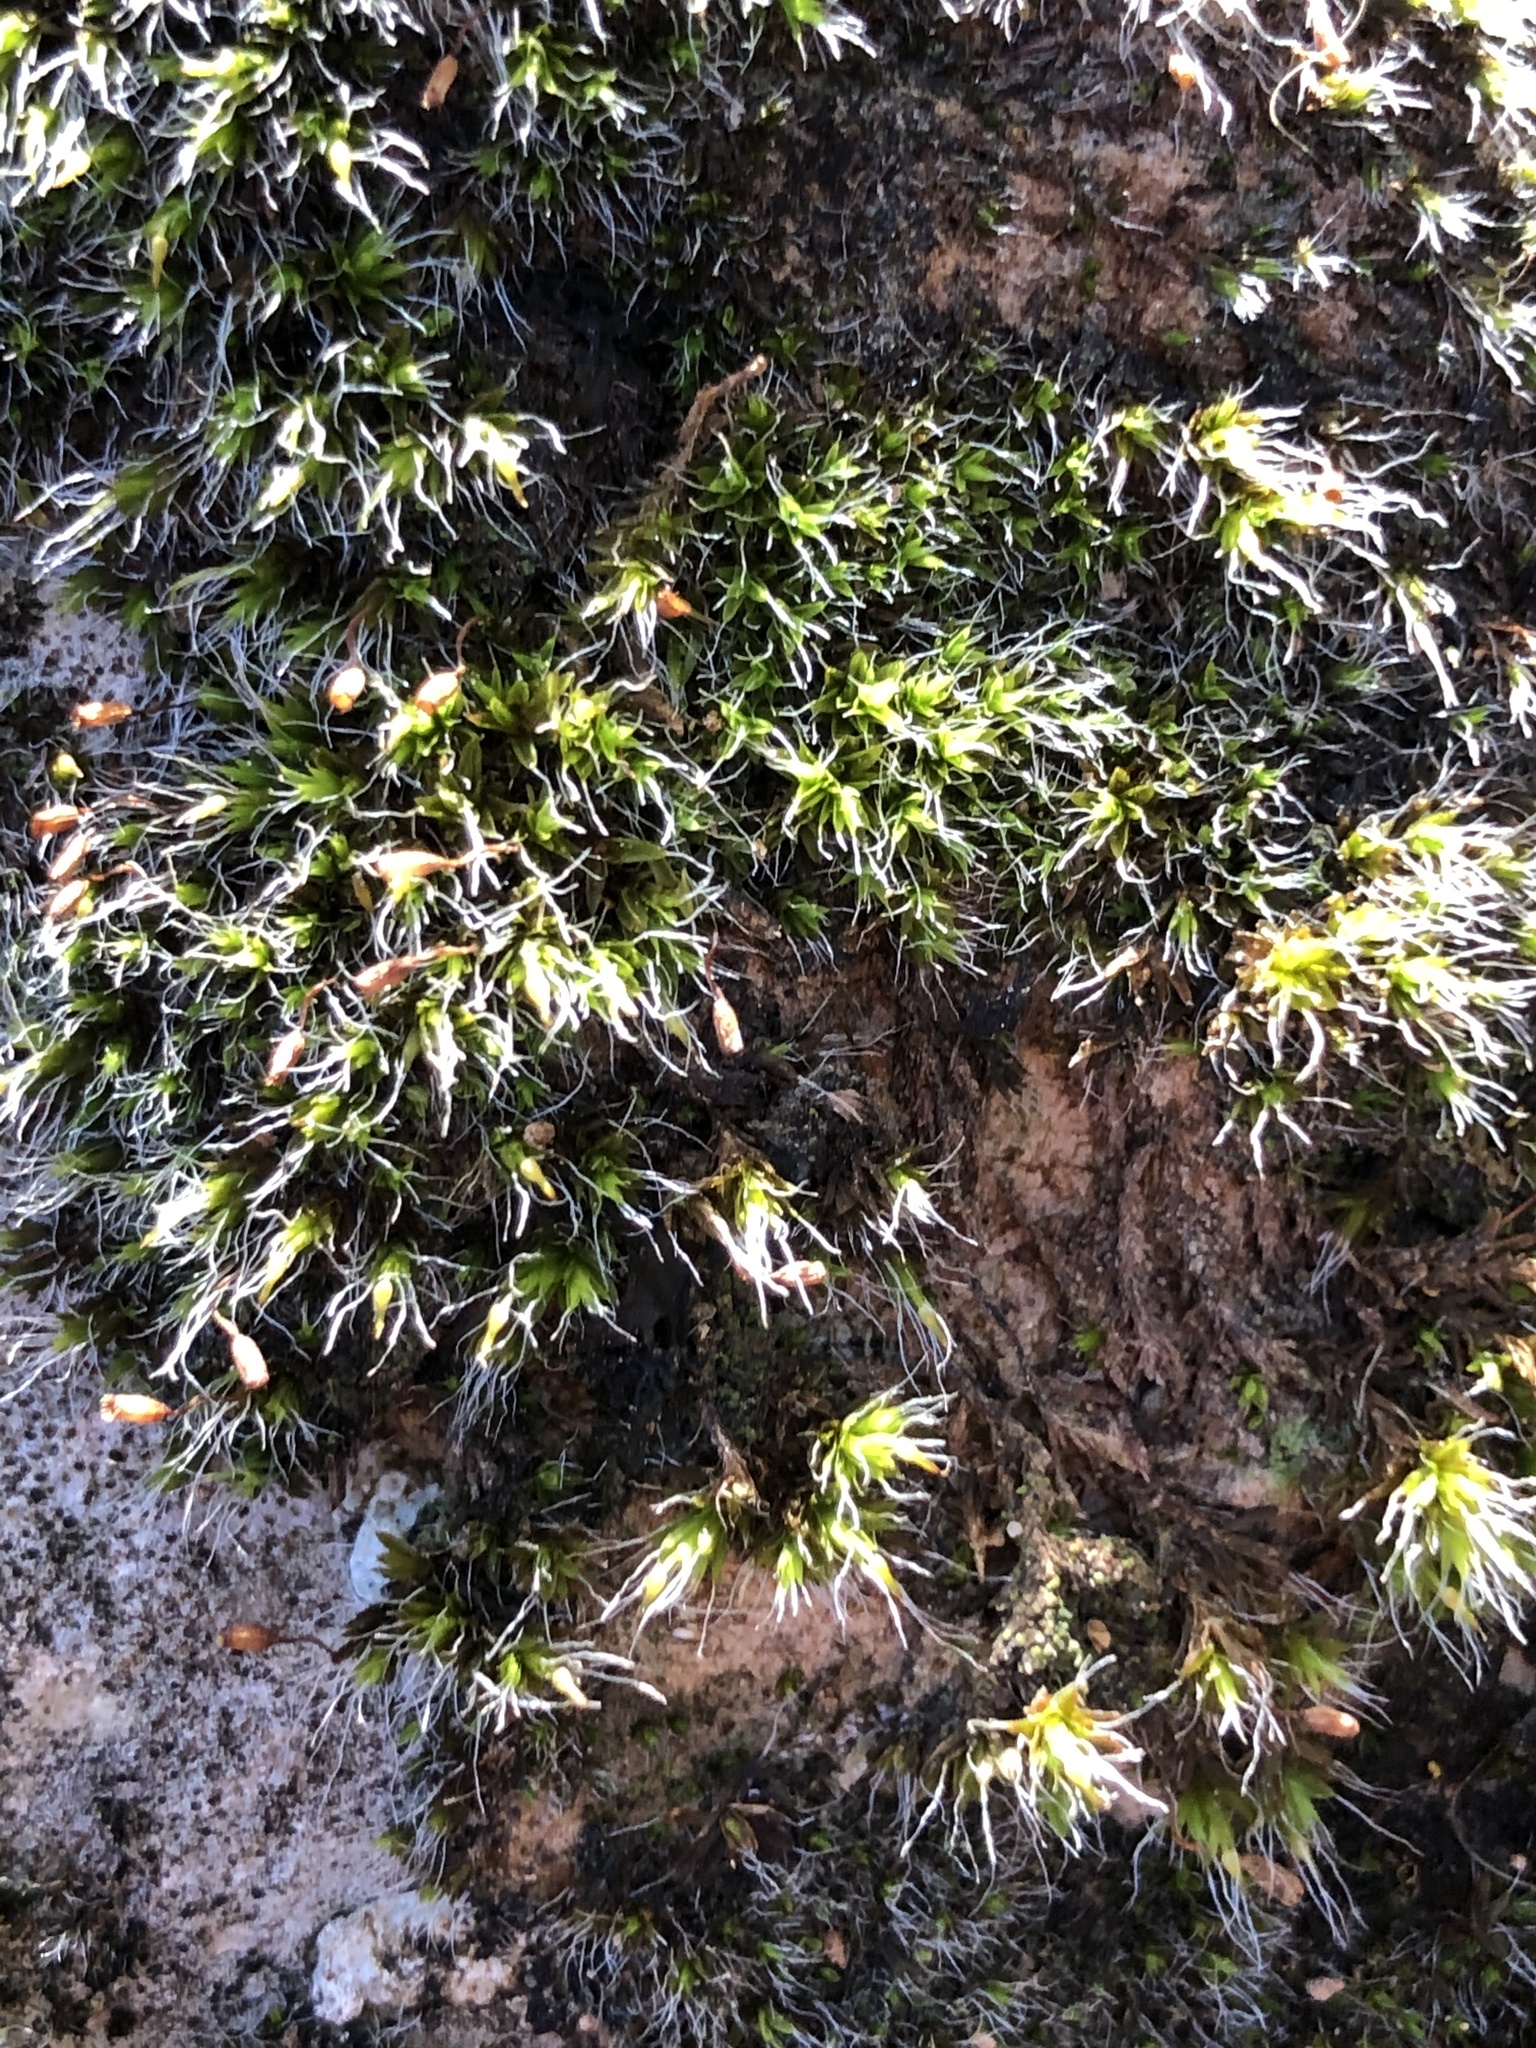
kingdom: Plantae
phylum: Bryophyta
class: Bryopsida
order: Pottiales
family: Pottiaceae
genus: Tortula
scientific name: Tortula muralis
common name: Wall screw-moss
